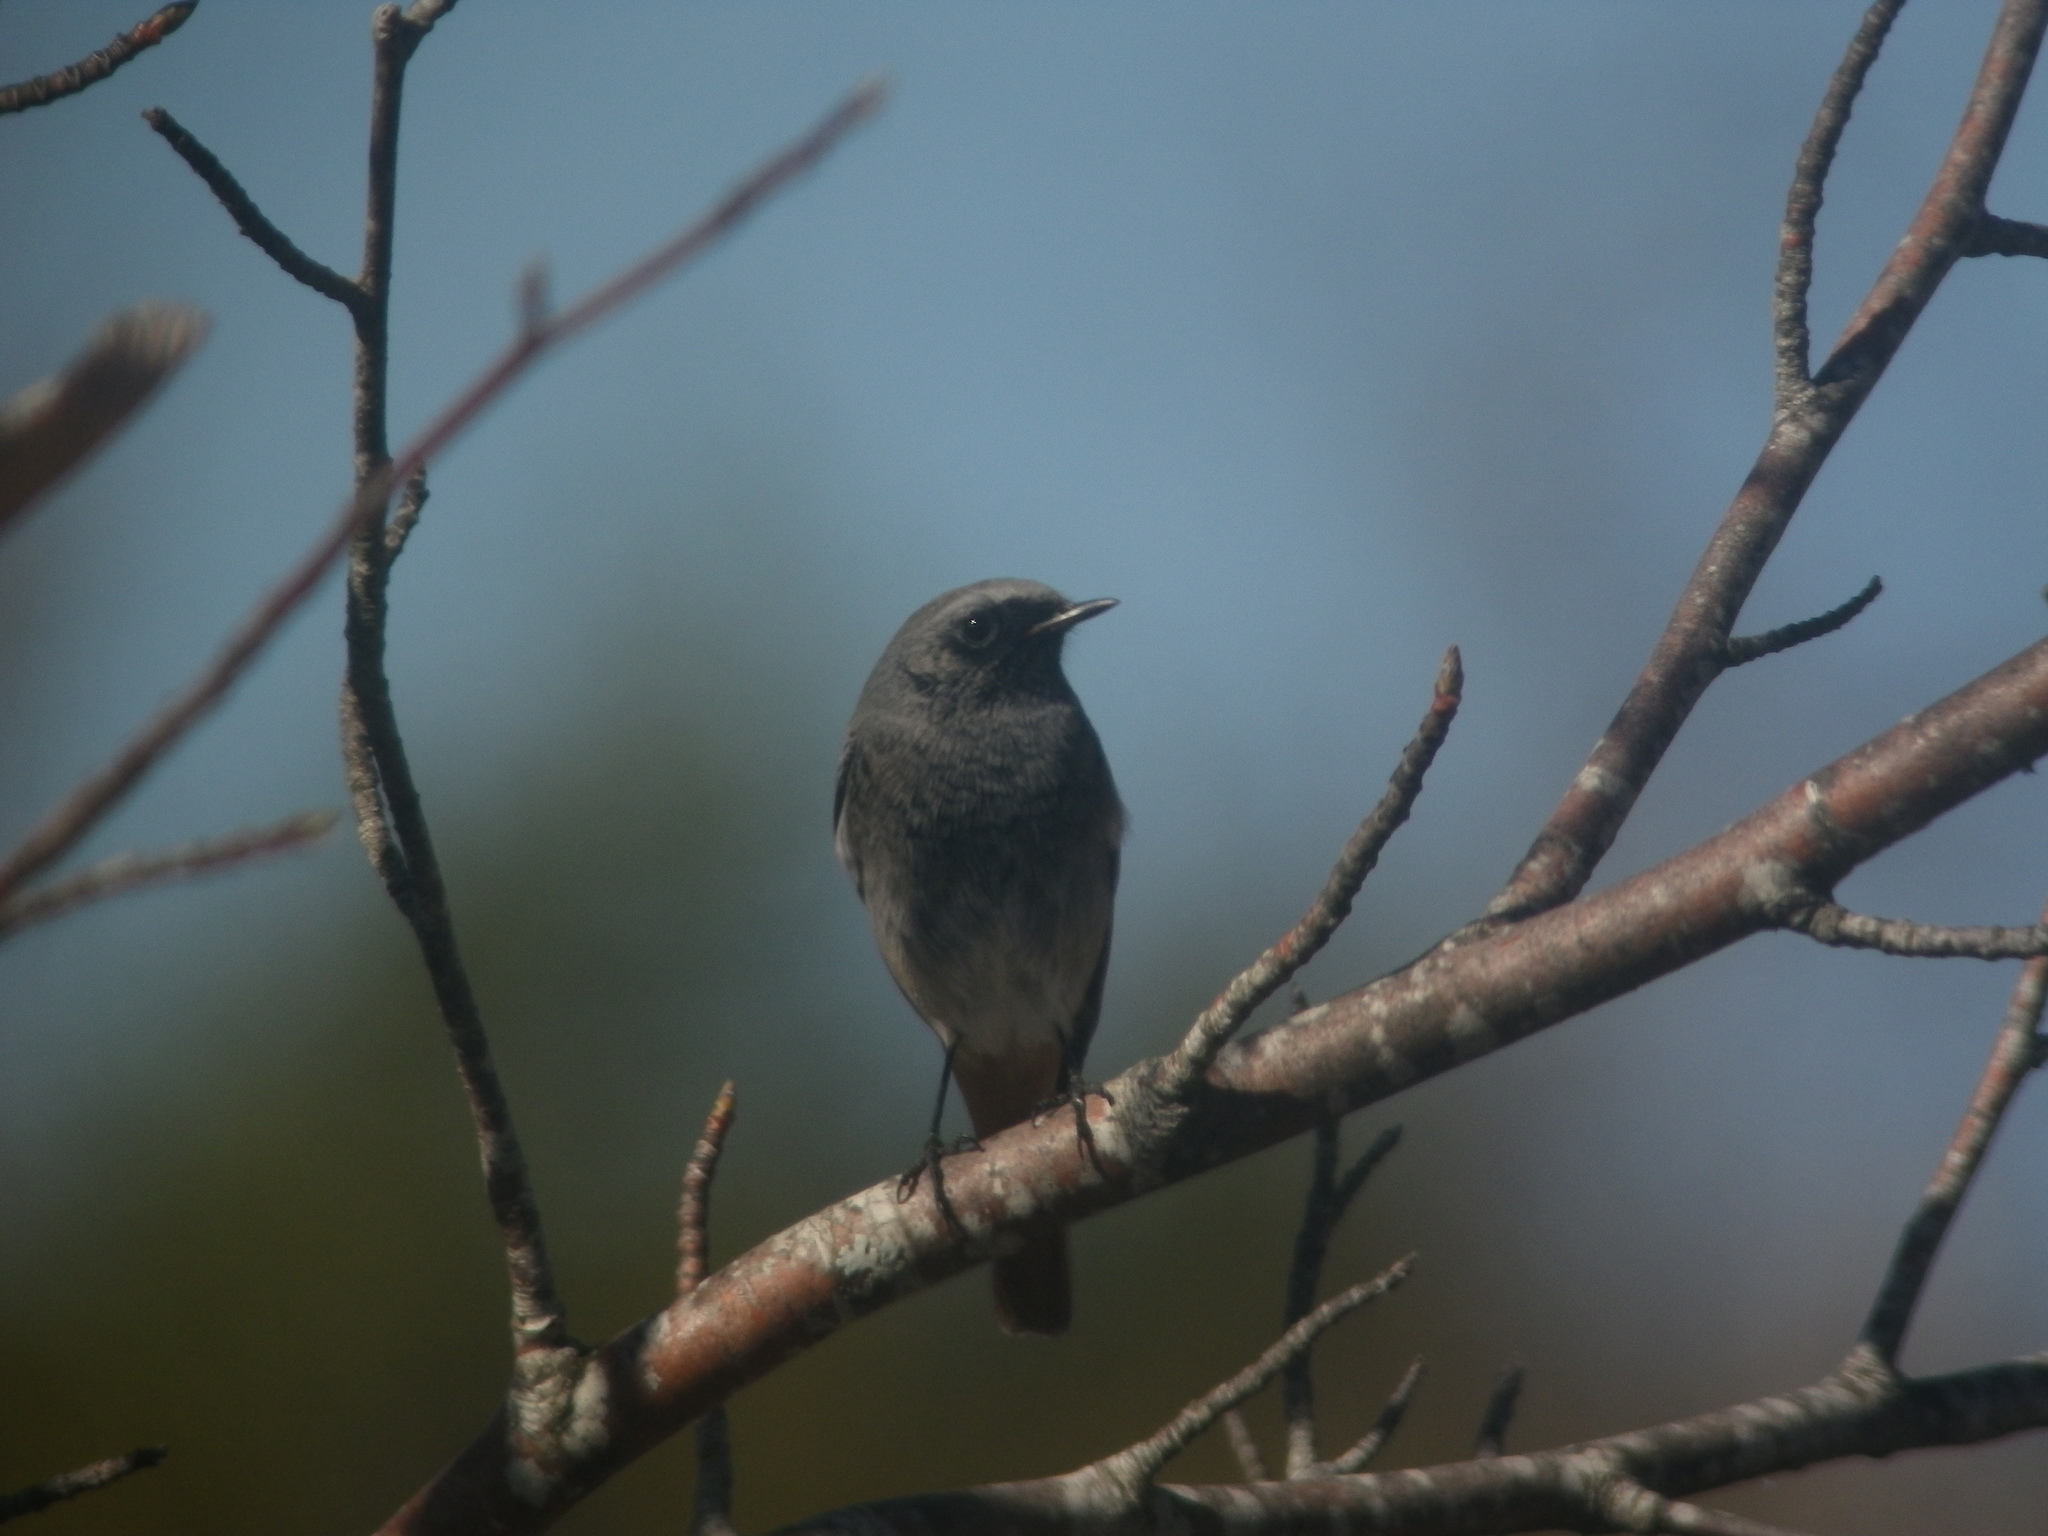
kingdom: Animalia
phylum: Chordata
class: Aves
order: Passeriformes
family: Muscicapidae
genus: Phoenicurus
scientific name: Phoenicurus ochruros
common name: Black redstart
